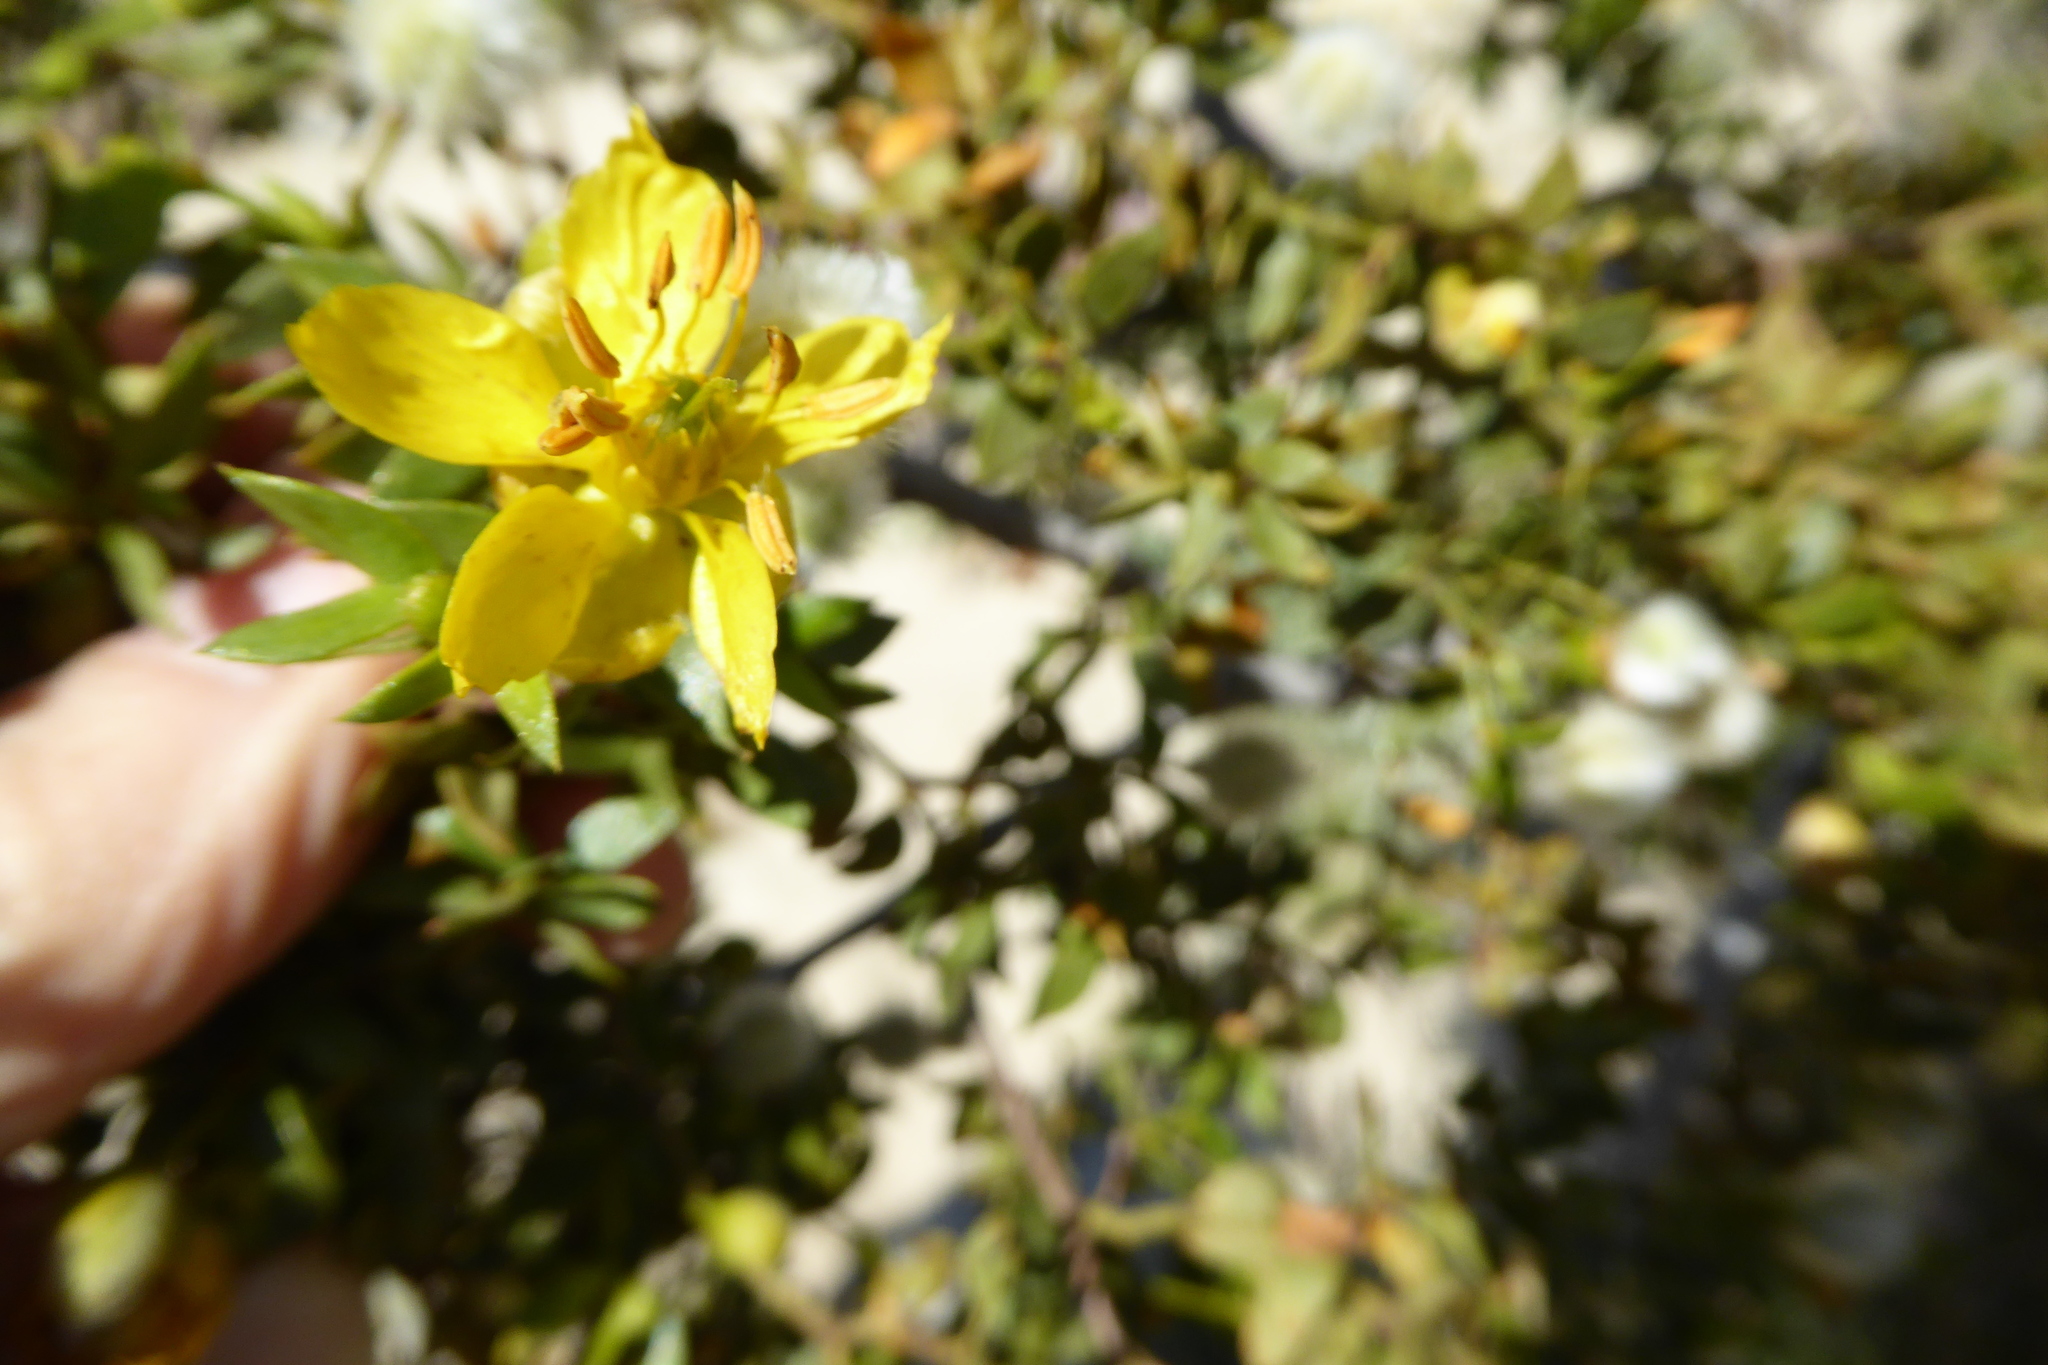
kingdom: Plantae
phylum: Tracheophyta
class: Magnoliopsida
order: Zygophyllales
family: Zygophyllaceae
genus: Larrea
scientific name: Larrea tridentata
